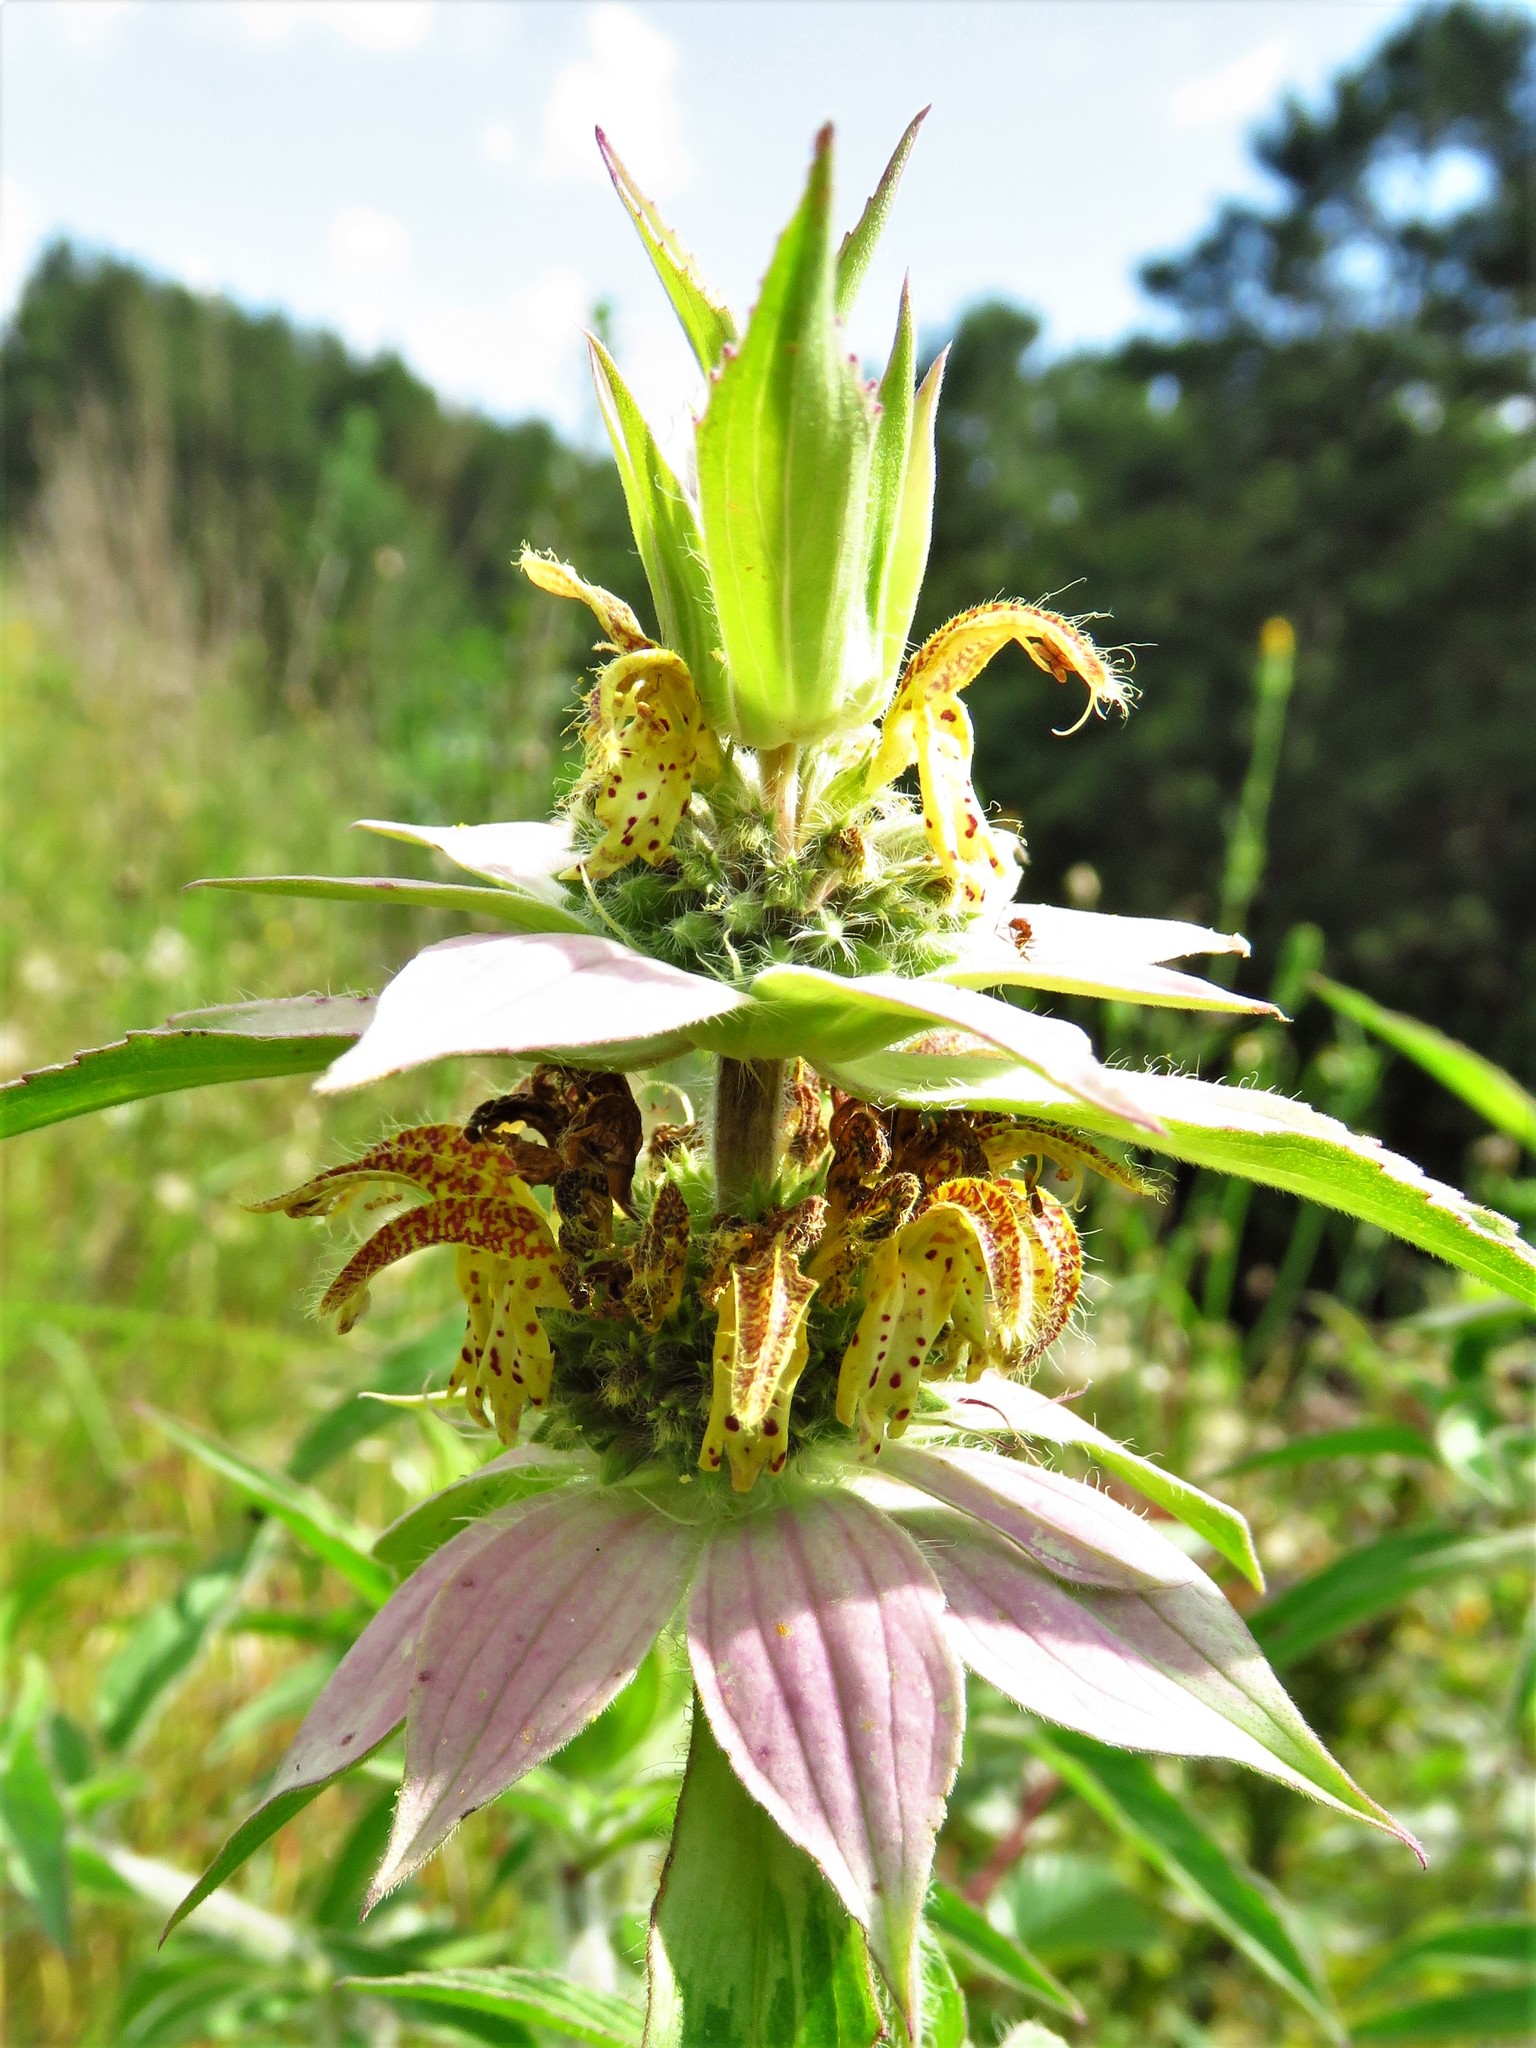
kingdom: Plantae
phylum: Tracheophyta
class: Magnoliopsida
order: Lamiales
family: Lamiaceae
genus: Monarda
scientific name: Monarda punctata
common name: Dotted monarda
